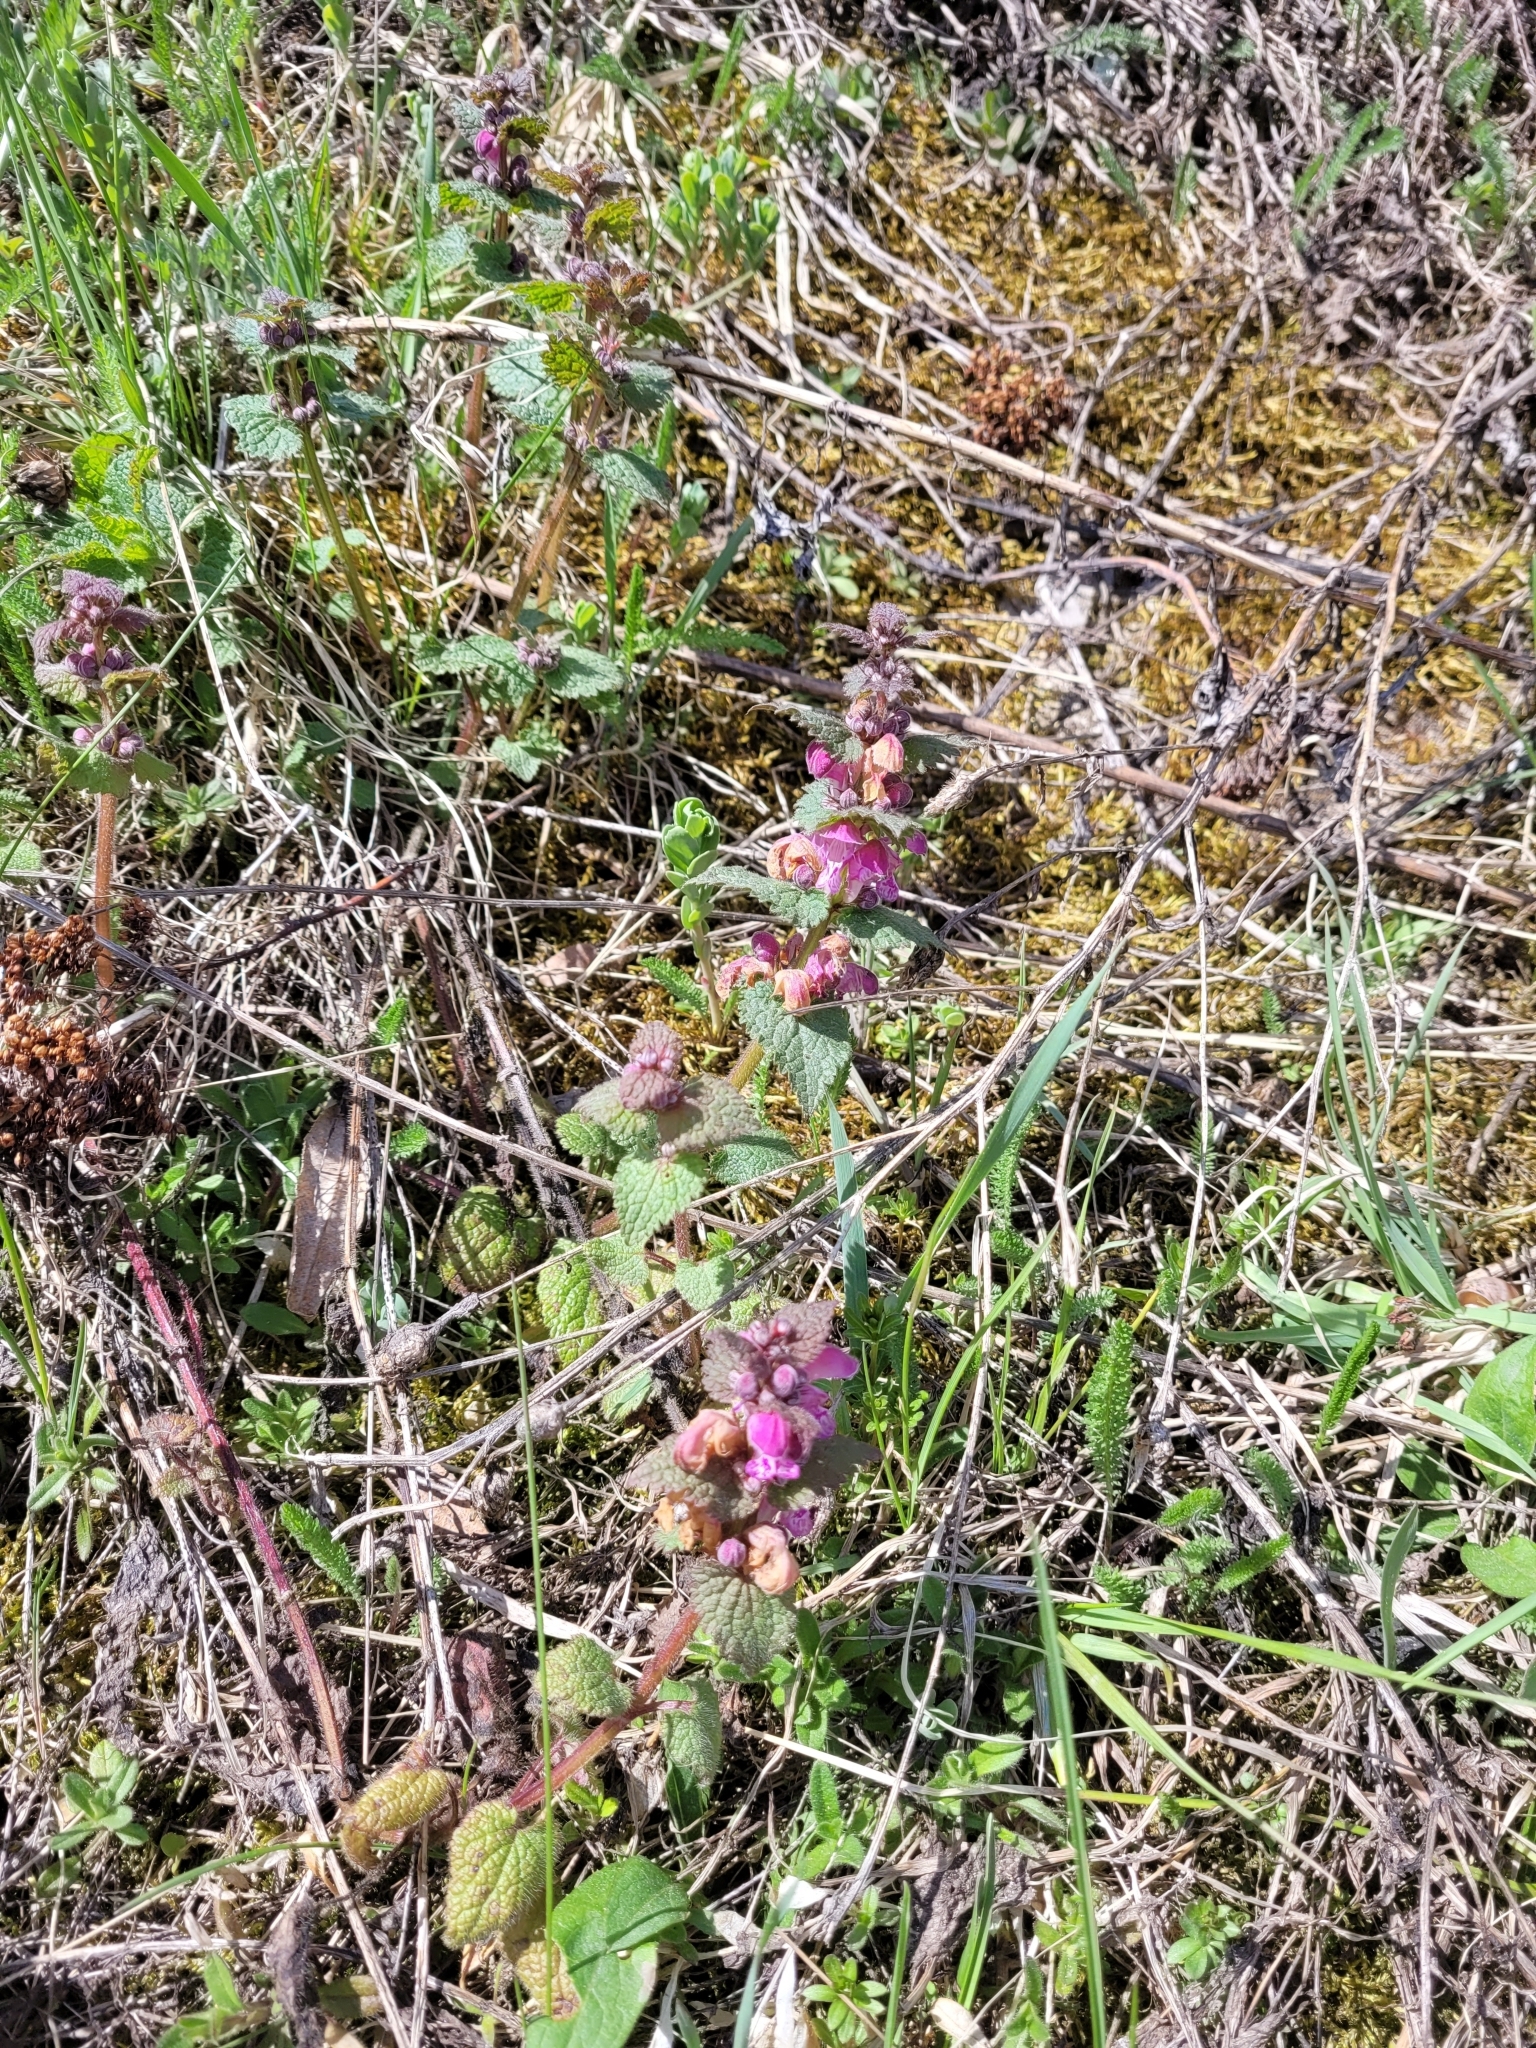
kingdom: Plantae
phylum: Tracheophyta
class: Magnoliopsida
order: Lamiales
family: Lamiaceae
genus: Lamium
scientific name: Lamium maculatum
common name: Spotted dead-nettle
